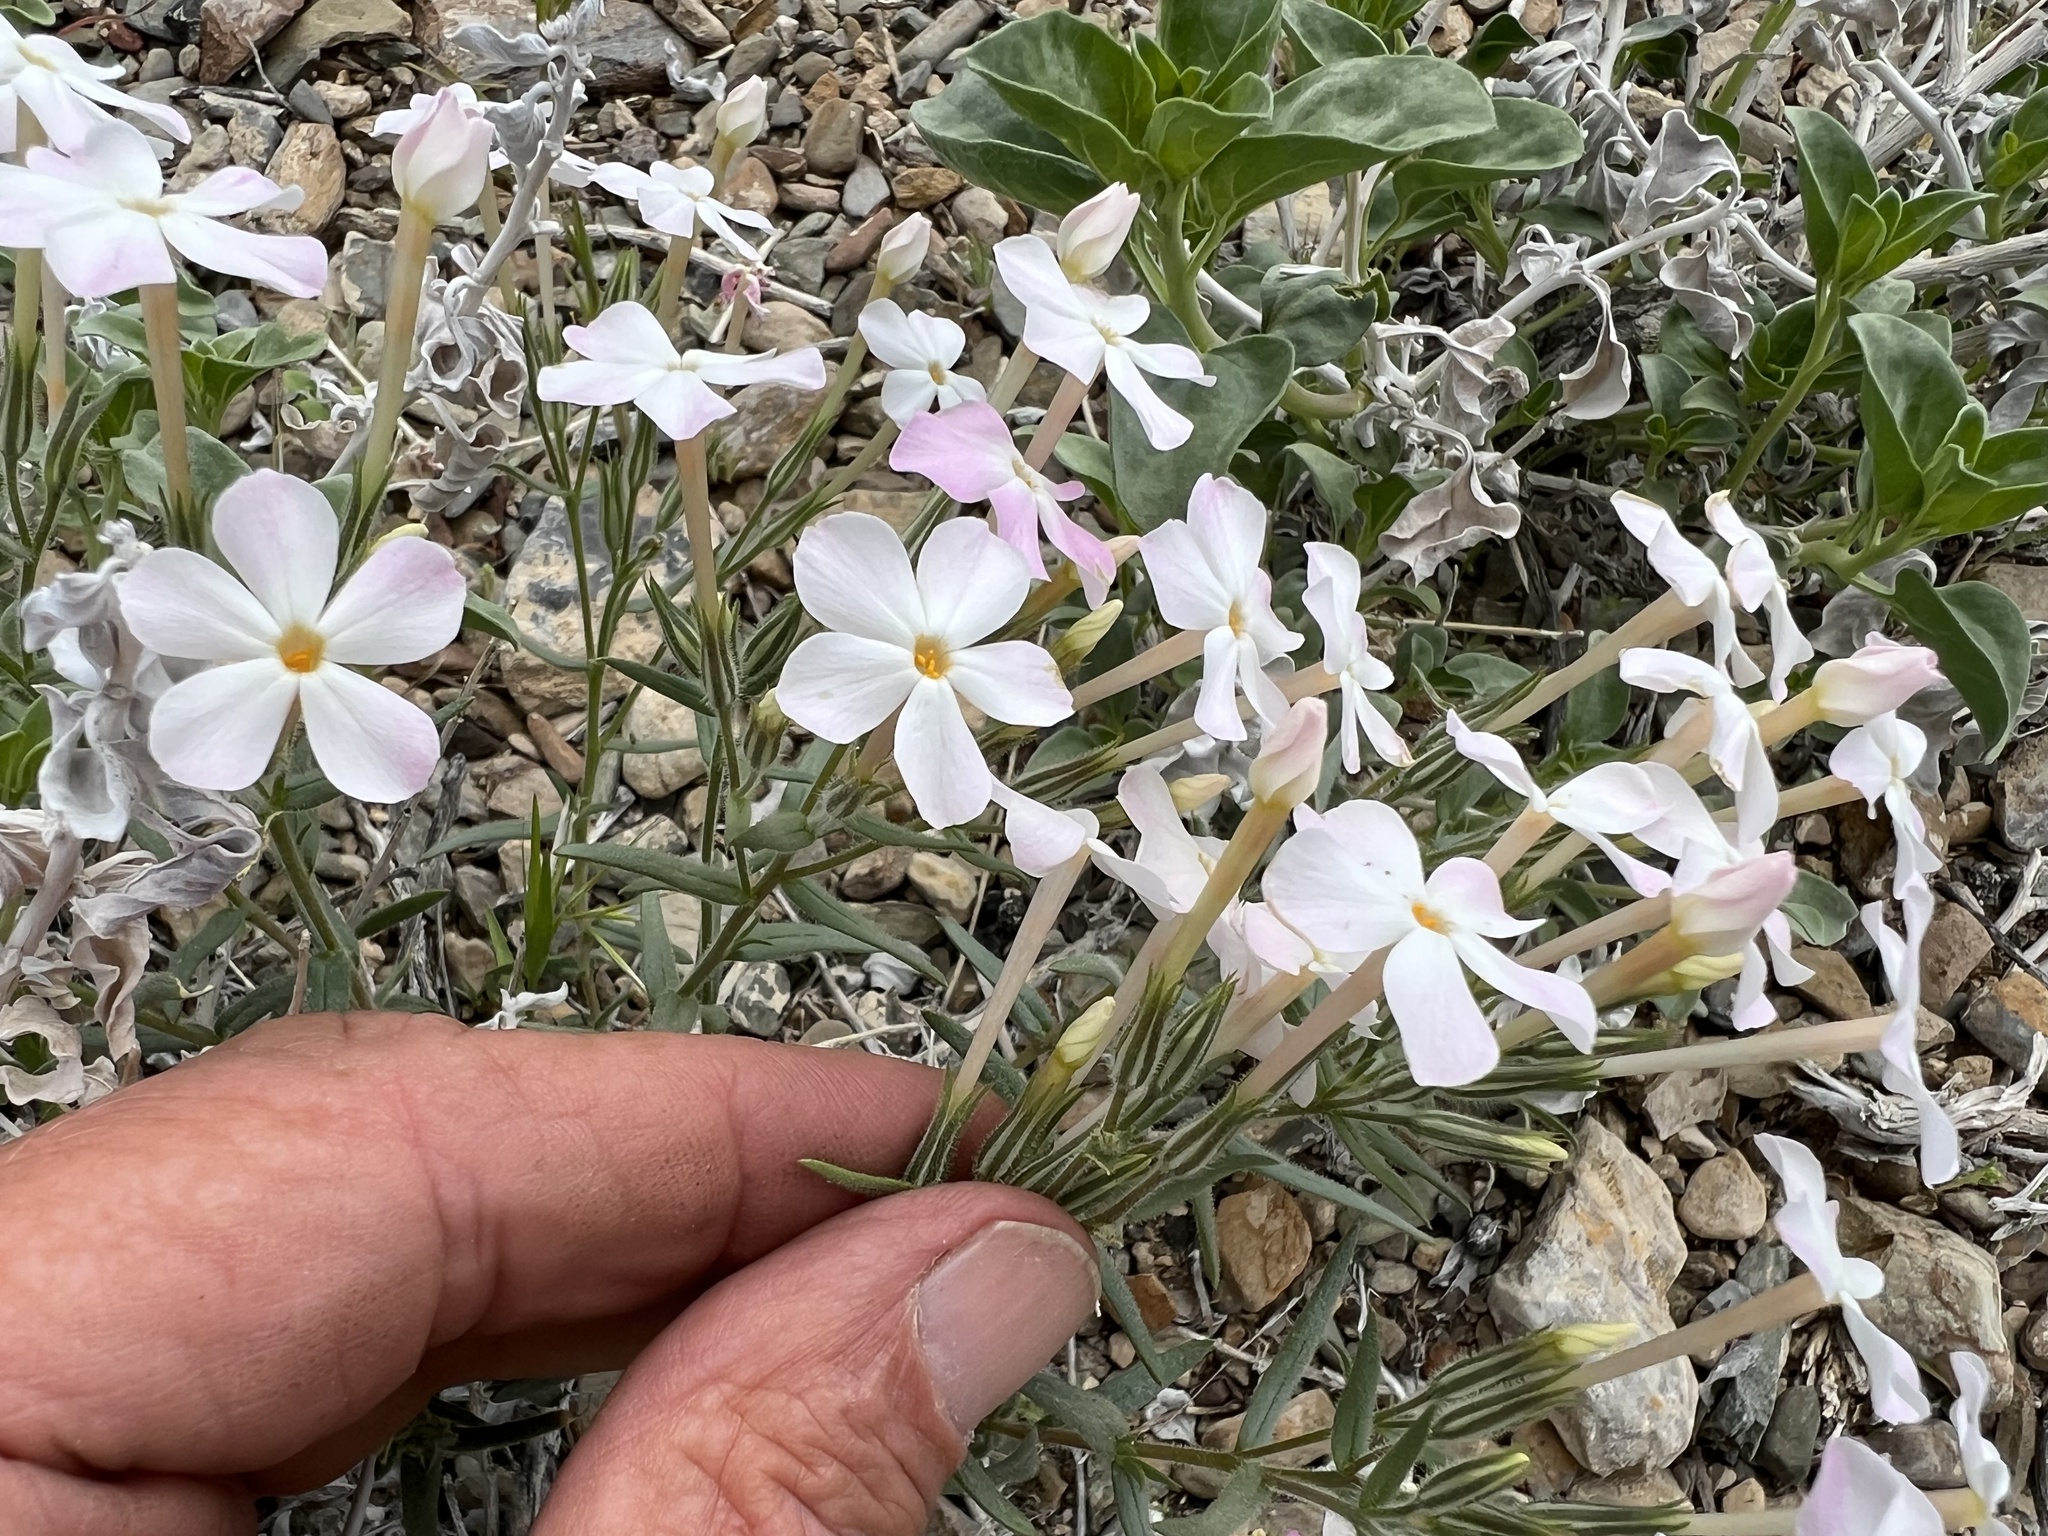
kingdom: Plantae
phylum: Tracheophyta
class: Magnoliopsida
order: Ericales
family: Polemoniaceae
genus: Phlox
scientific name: Phlox longifolia
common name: Longleaf phlox
